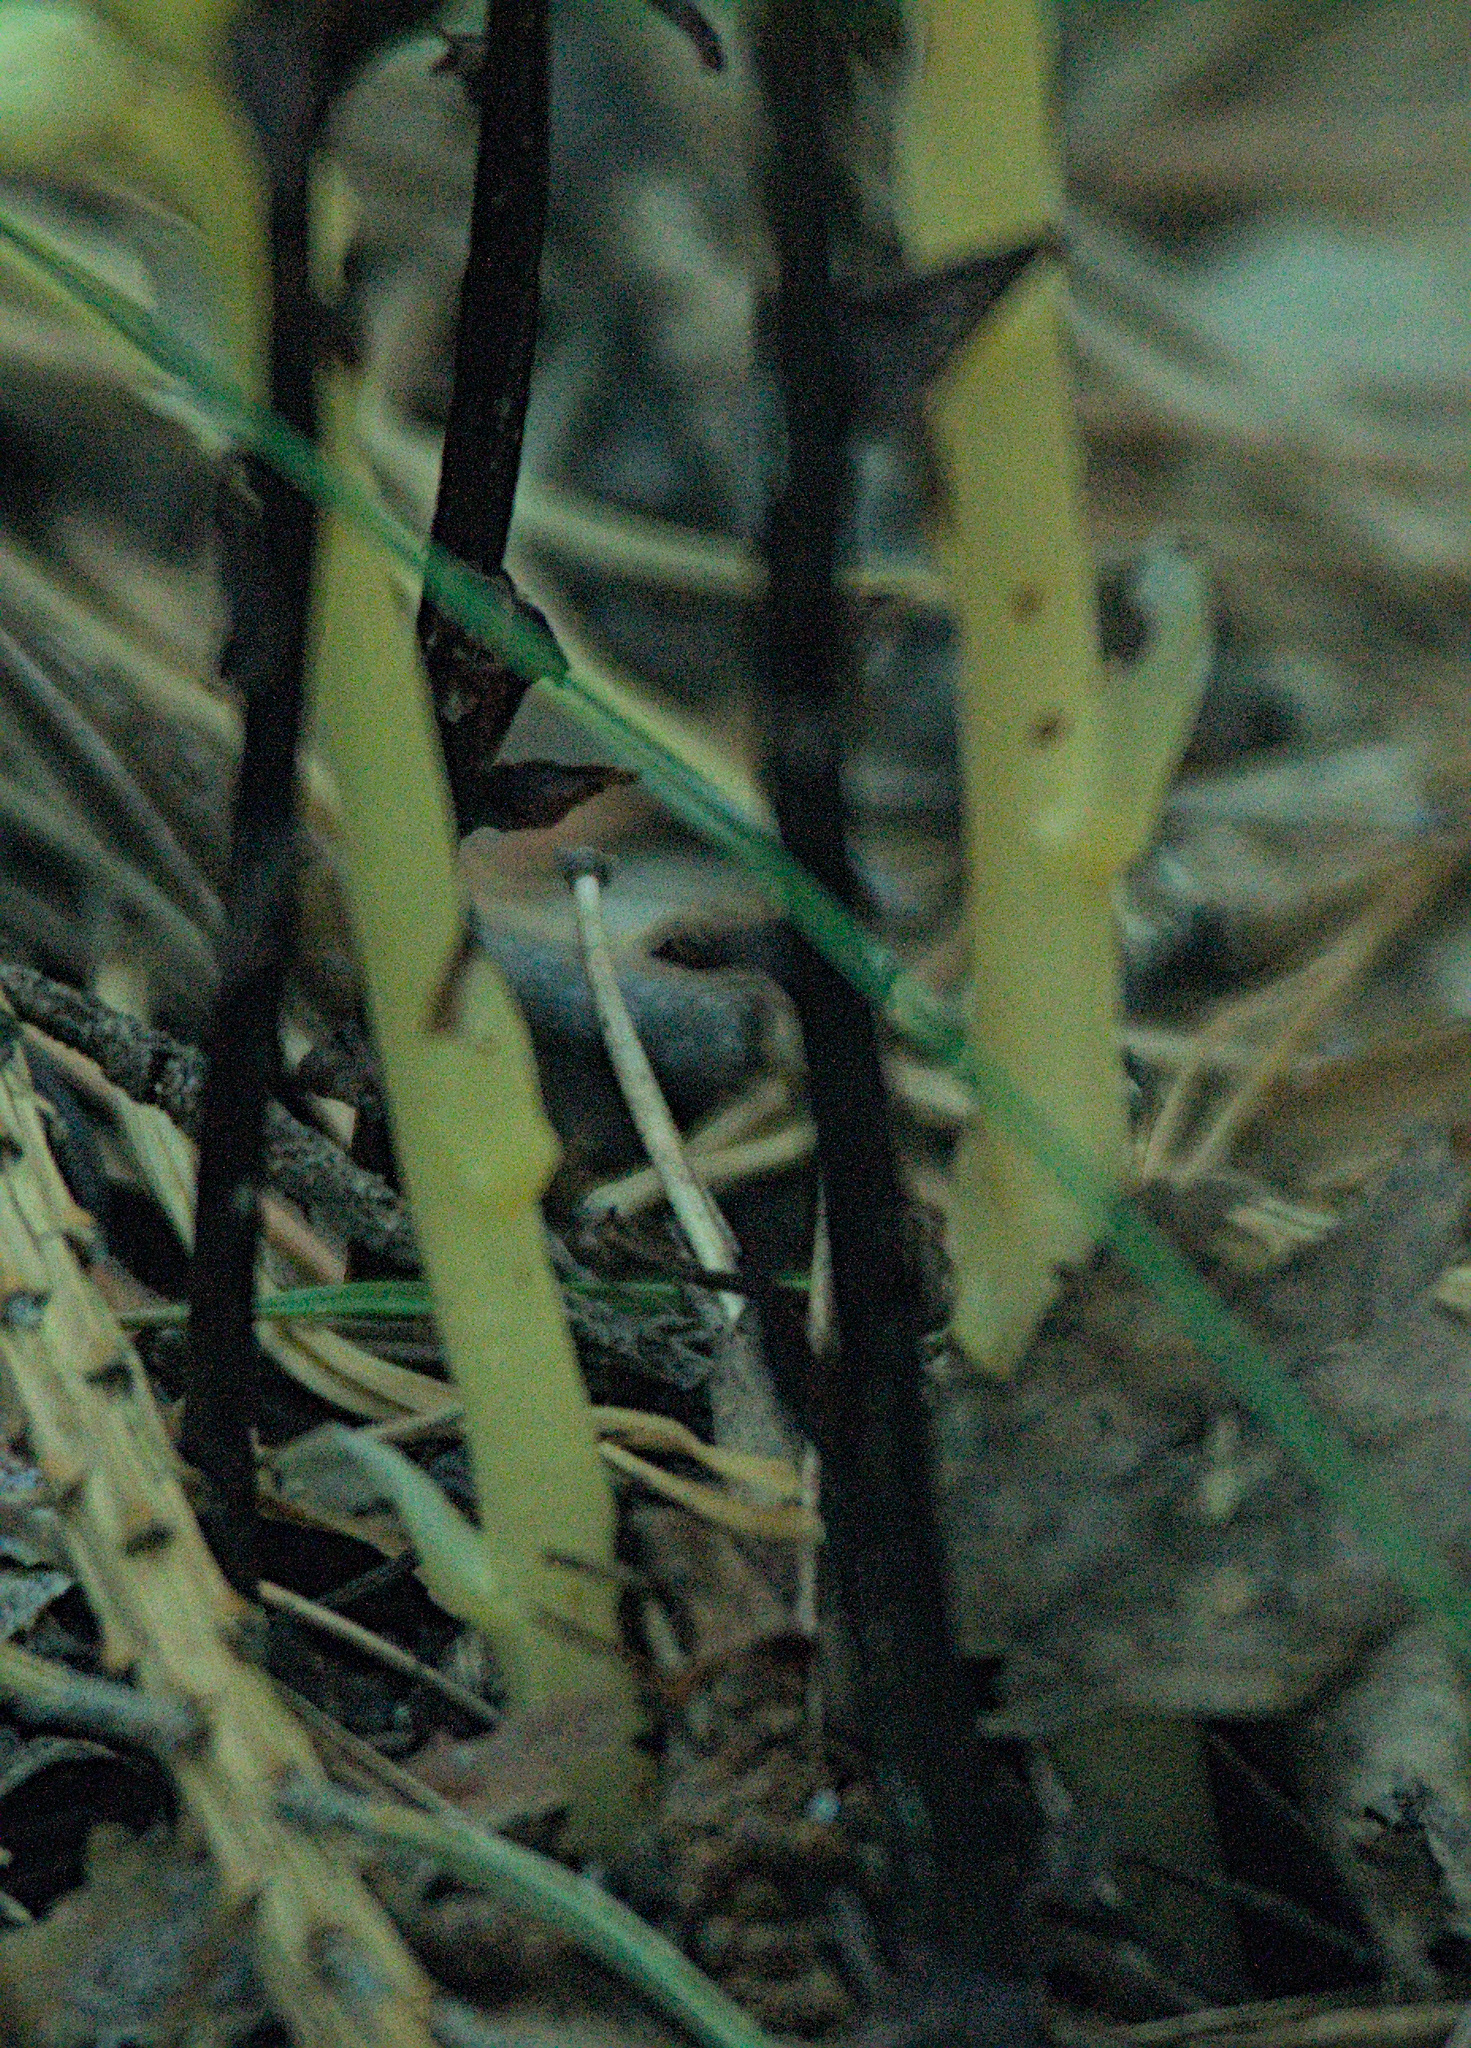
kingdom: Plantae
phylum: Tracheophyta
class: Magnoliopsida
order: Ericales
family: Ericaceae
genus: Hypopitys
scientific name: Hypopitys monotropa
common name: Yellow bird's-nest
